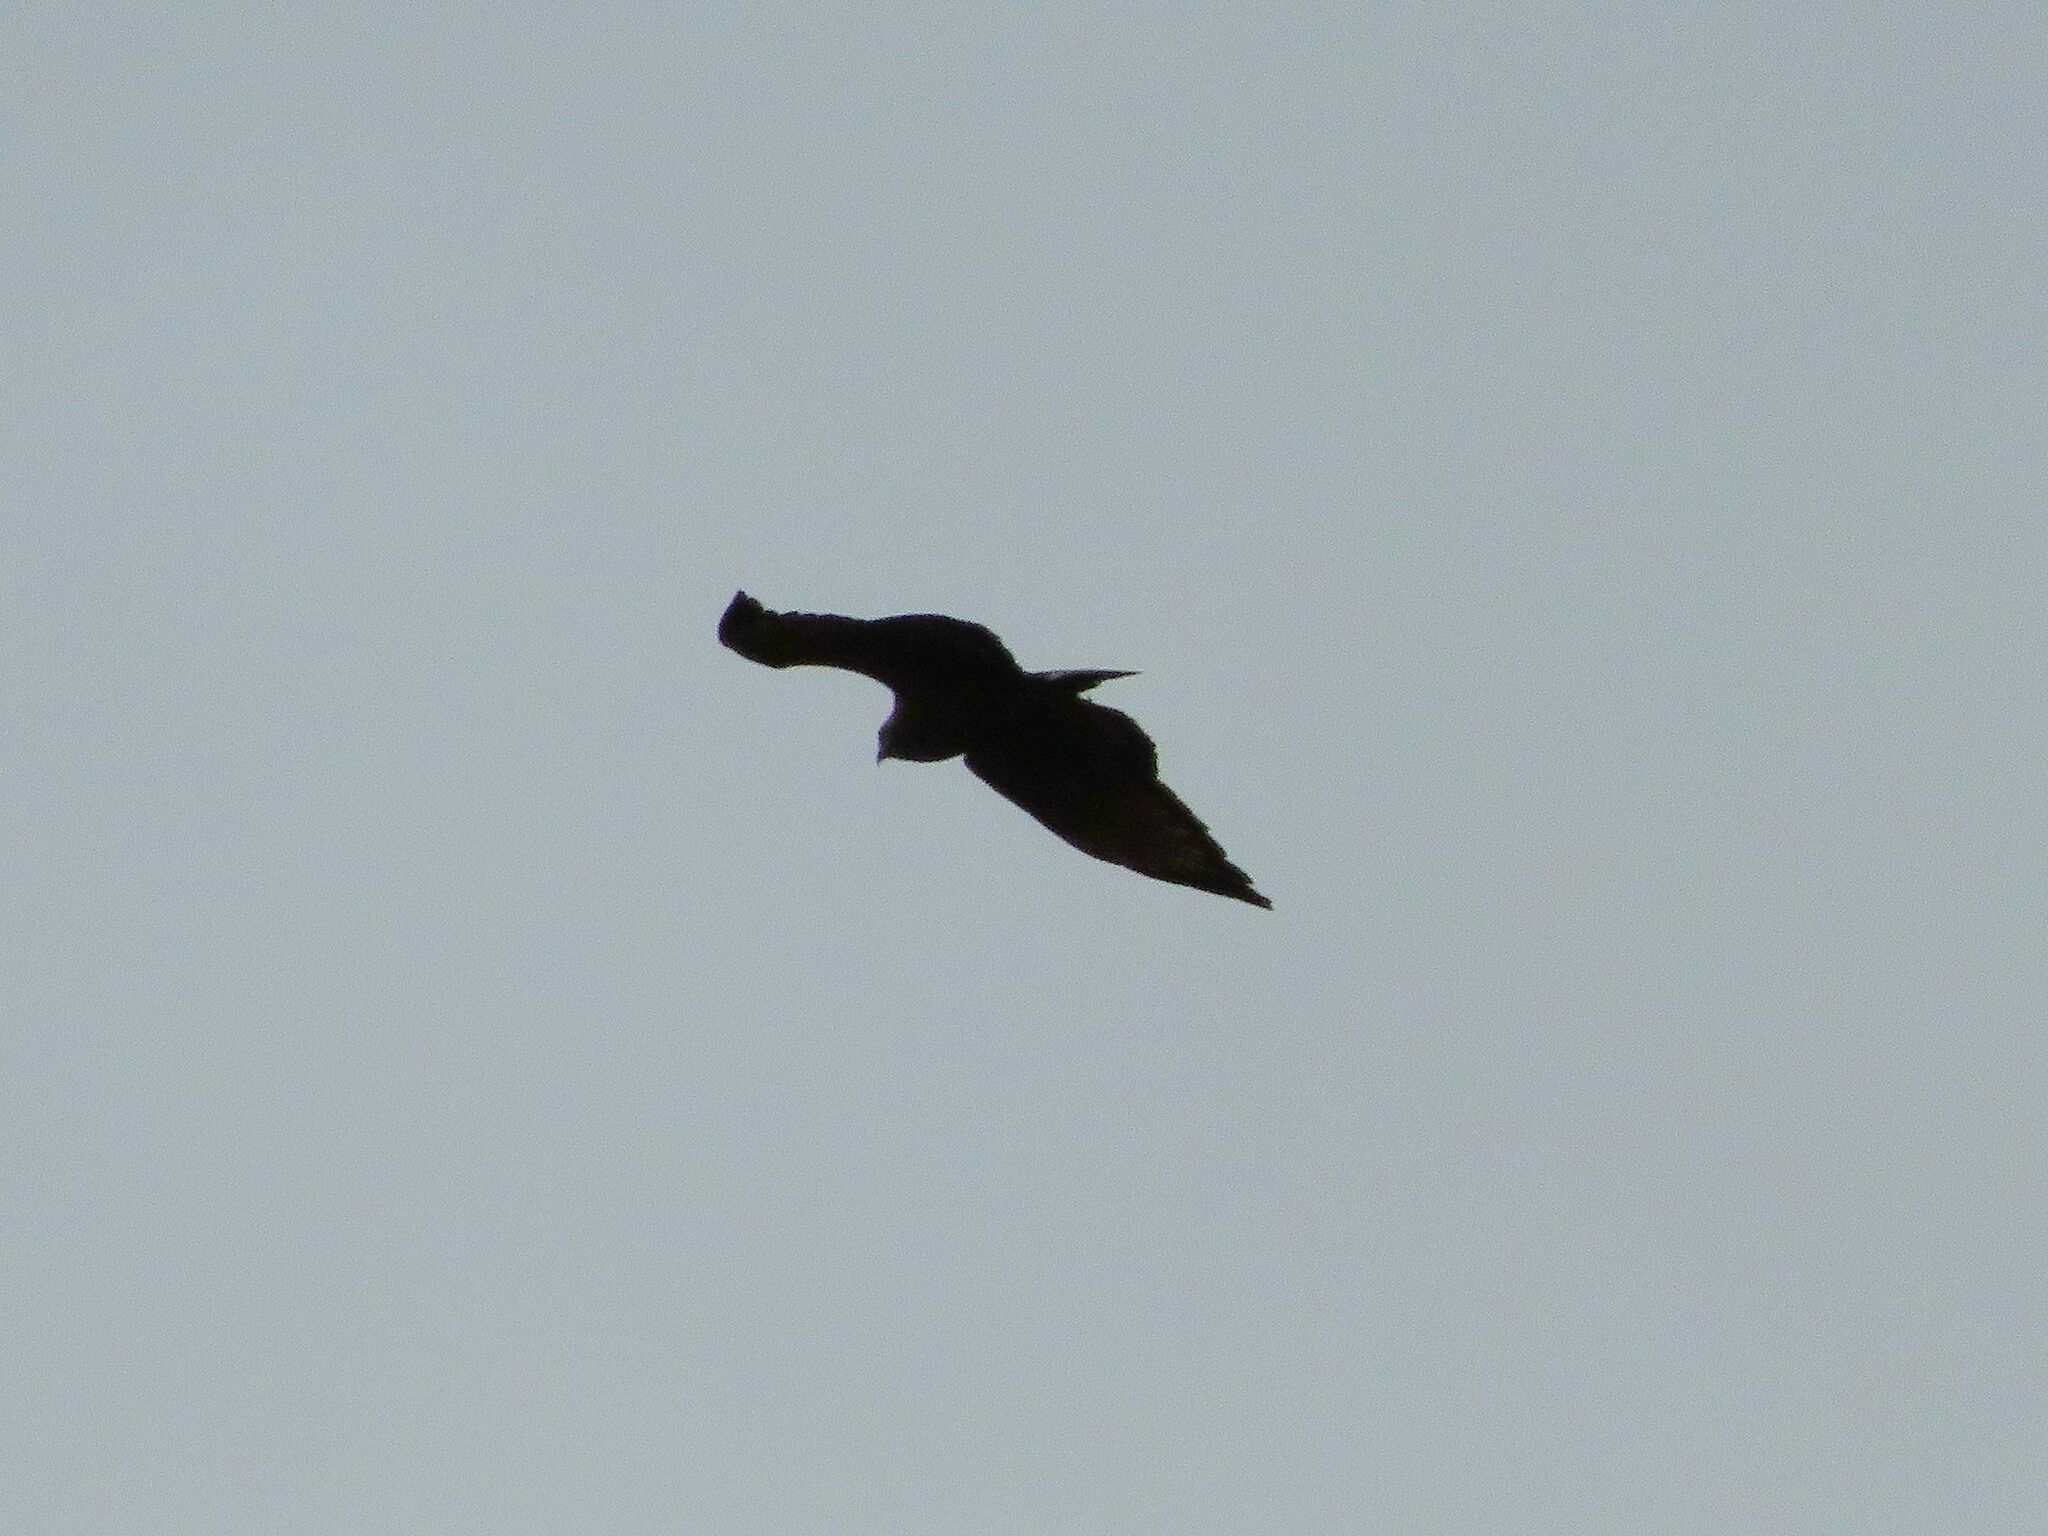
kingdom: Animalia
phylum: Chordata
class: Aves
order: Accipitriformes
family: Accipitridae
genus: Parabuteo
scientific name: Parabuteo unicinctus
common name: Harris's hawk
